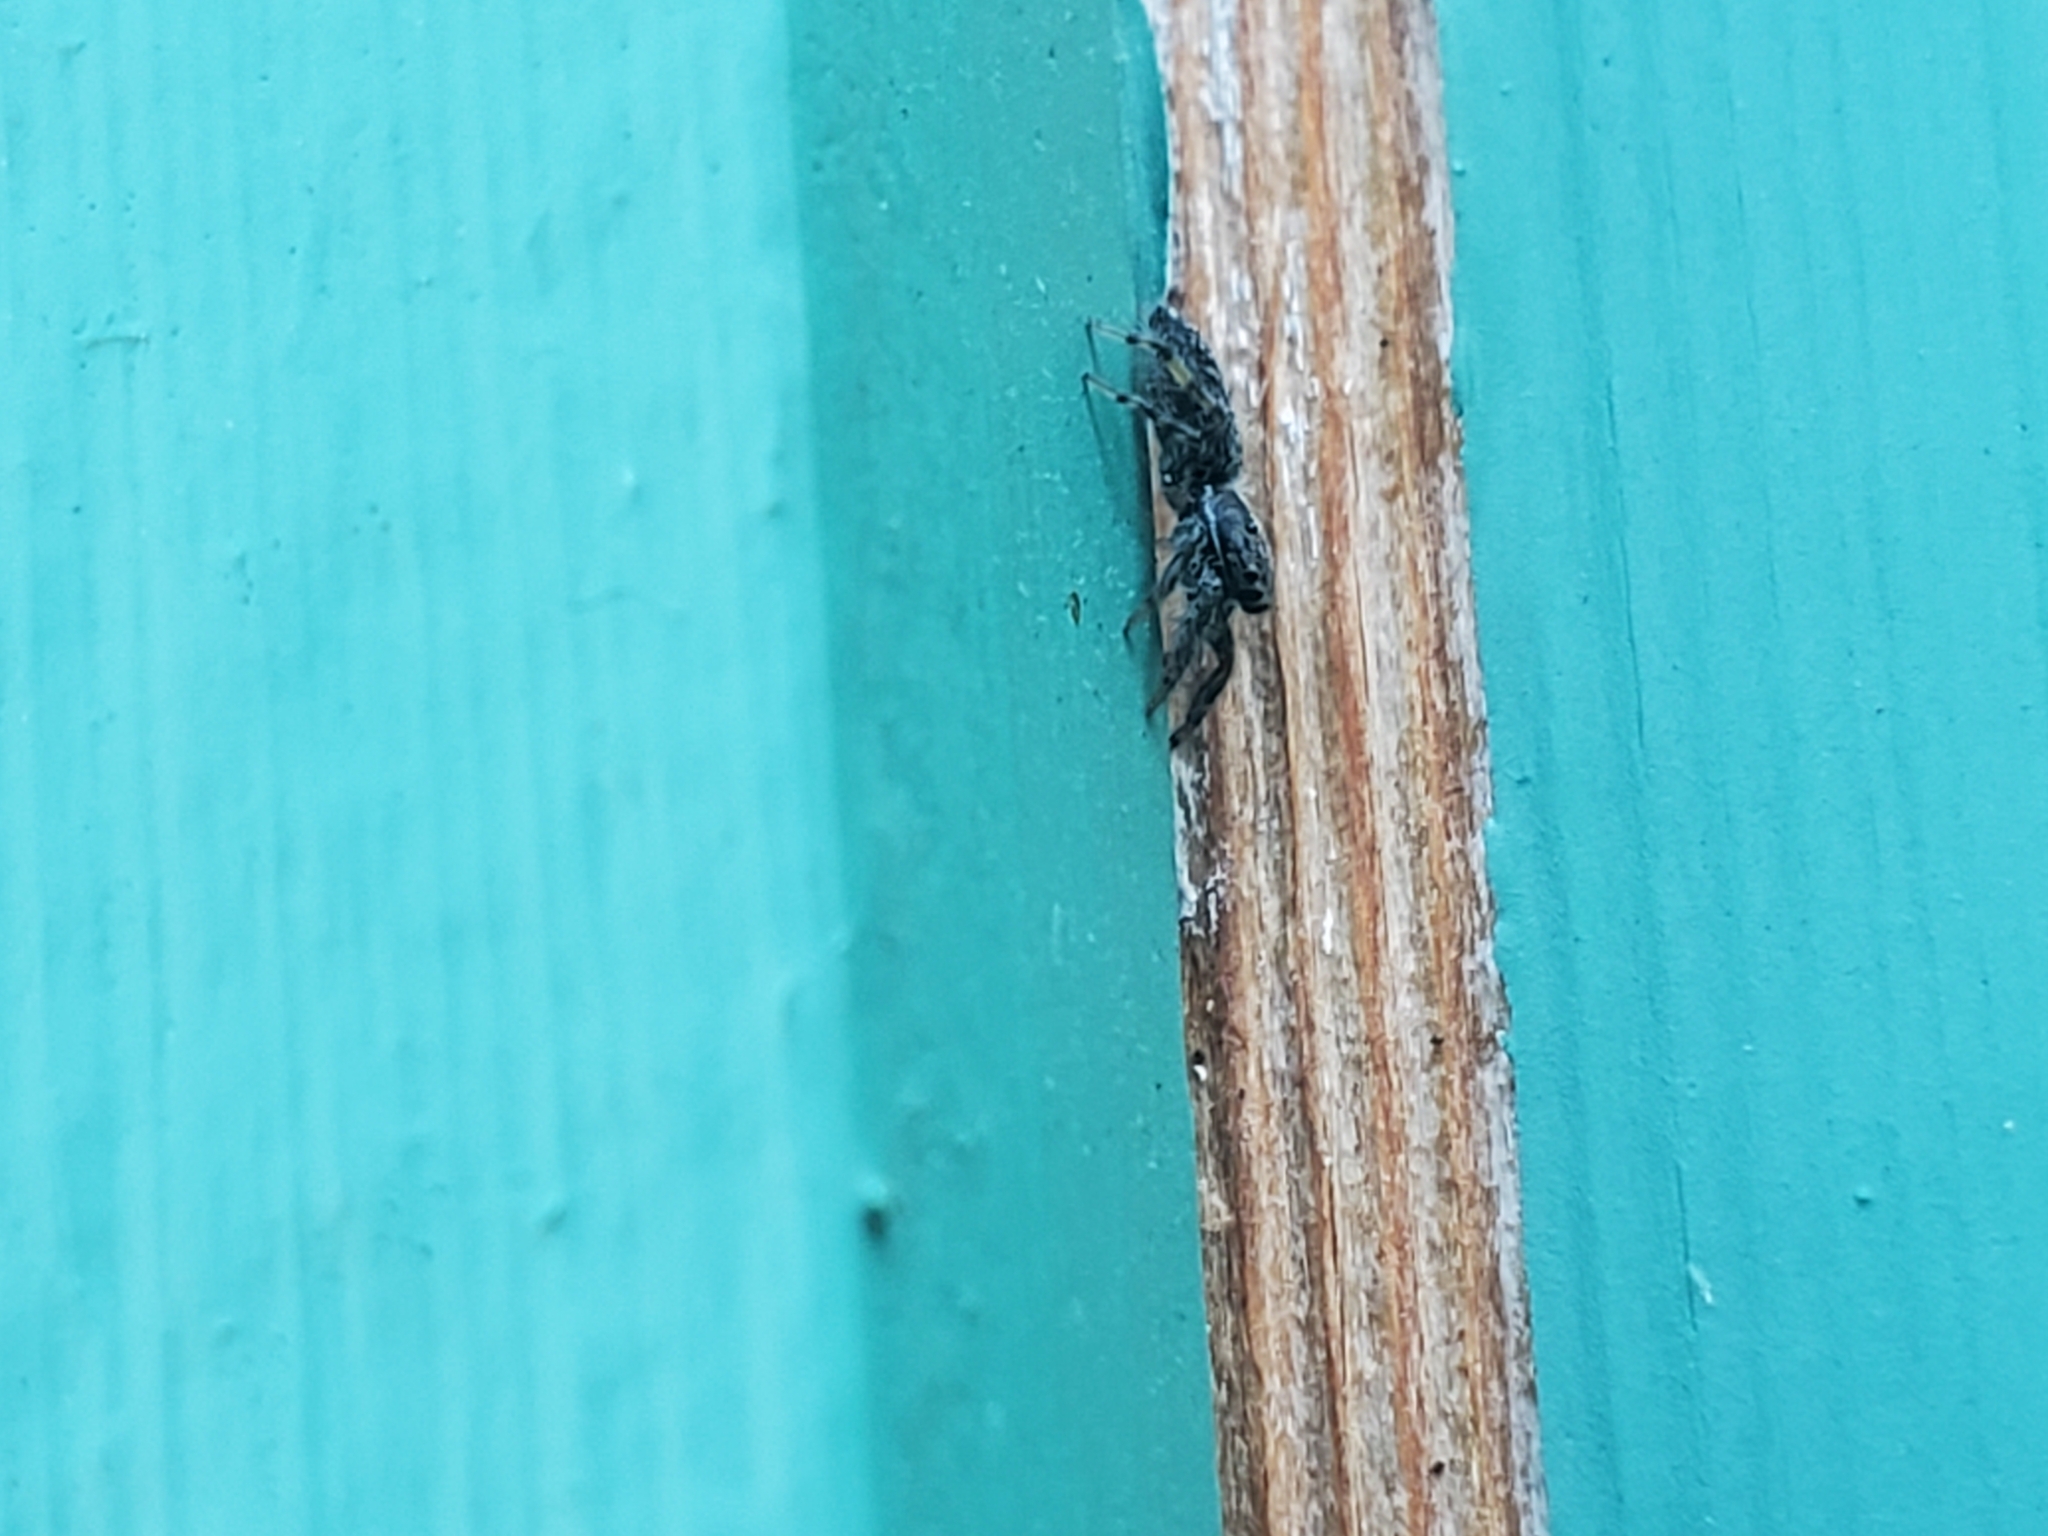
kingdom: Animalia
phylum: Arthropoda
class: Arachnida
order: Araneae
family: Salticidae
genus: Platycryptus
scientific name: Platycryptus californicus
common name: Jumping spiders
